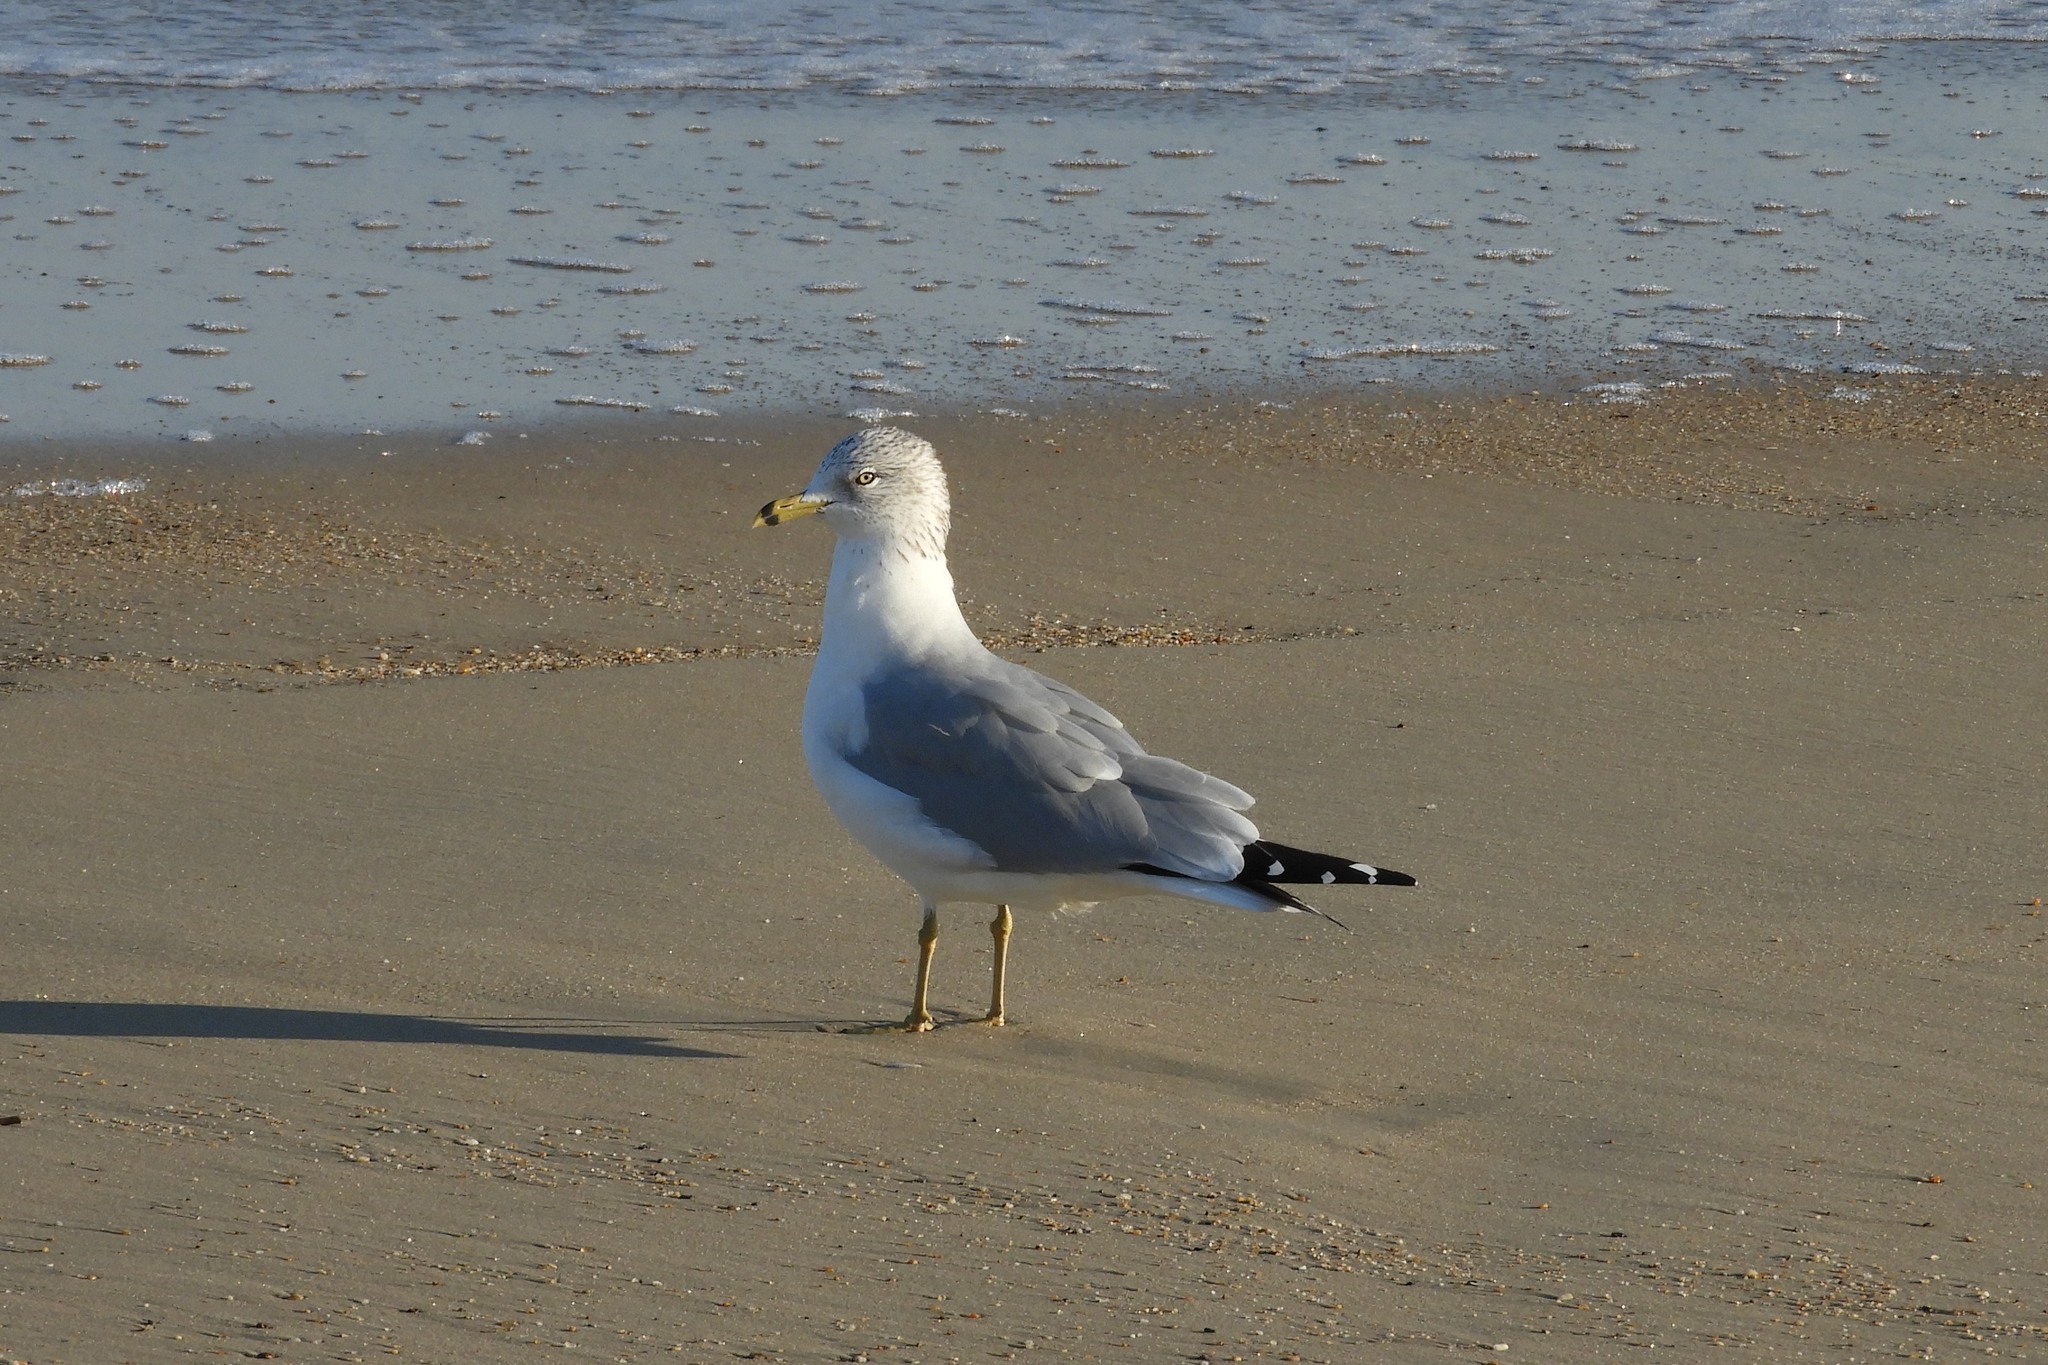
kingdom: Animalia
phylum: Chordata
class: Aves
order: Charadriiformes
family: Laridae
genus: Larus
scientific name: Larus delawarensis
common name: Ring-billed gull
